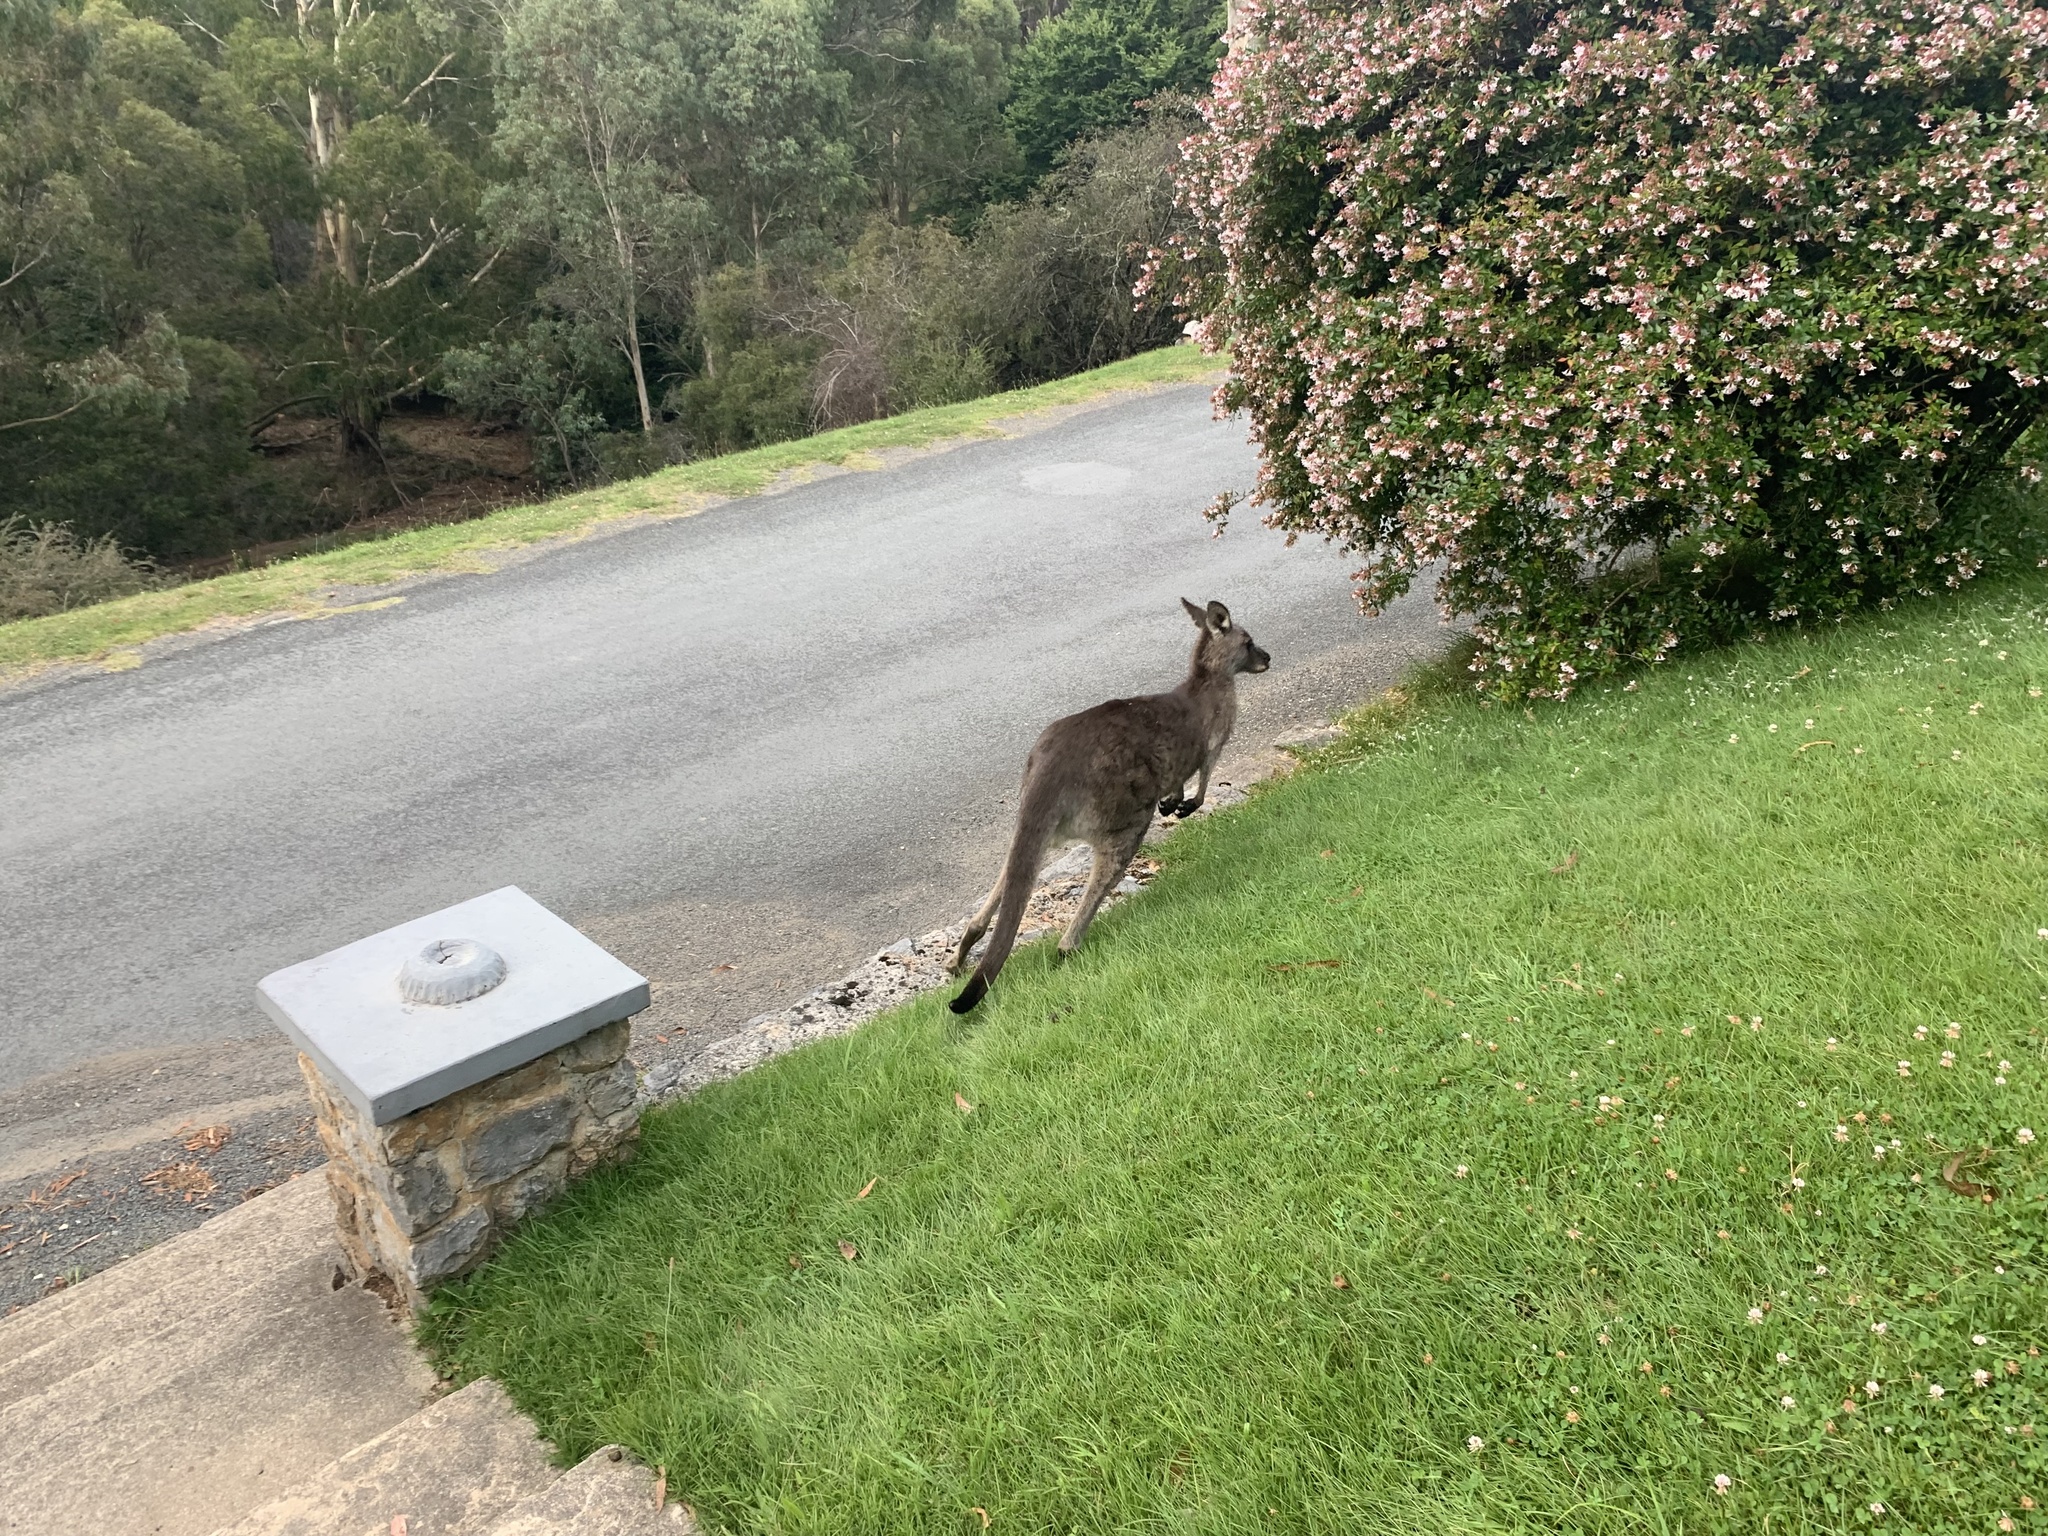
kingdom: Animalia
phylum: Chordata
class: Mammalia
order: Diprotodontia
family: Macropodidae
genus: Macropus
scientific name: Macropus giganteus
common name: Eastern grey kangaroo
